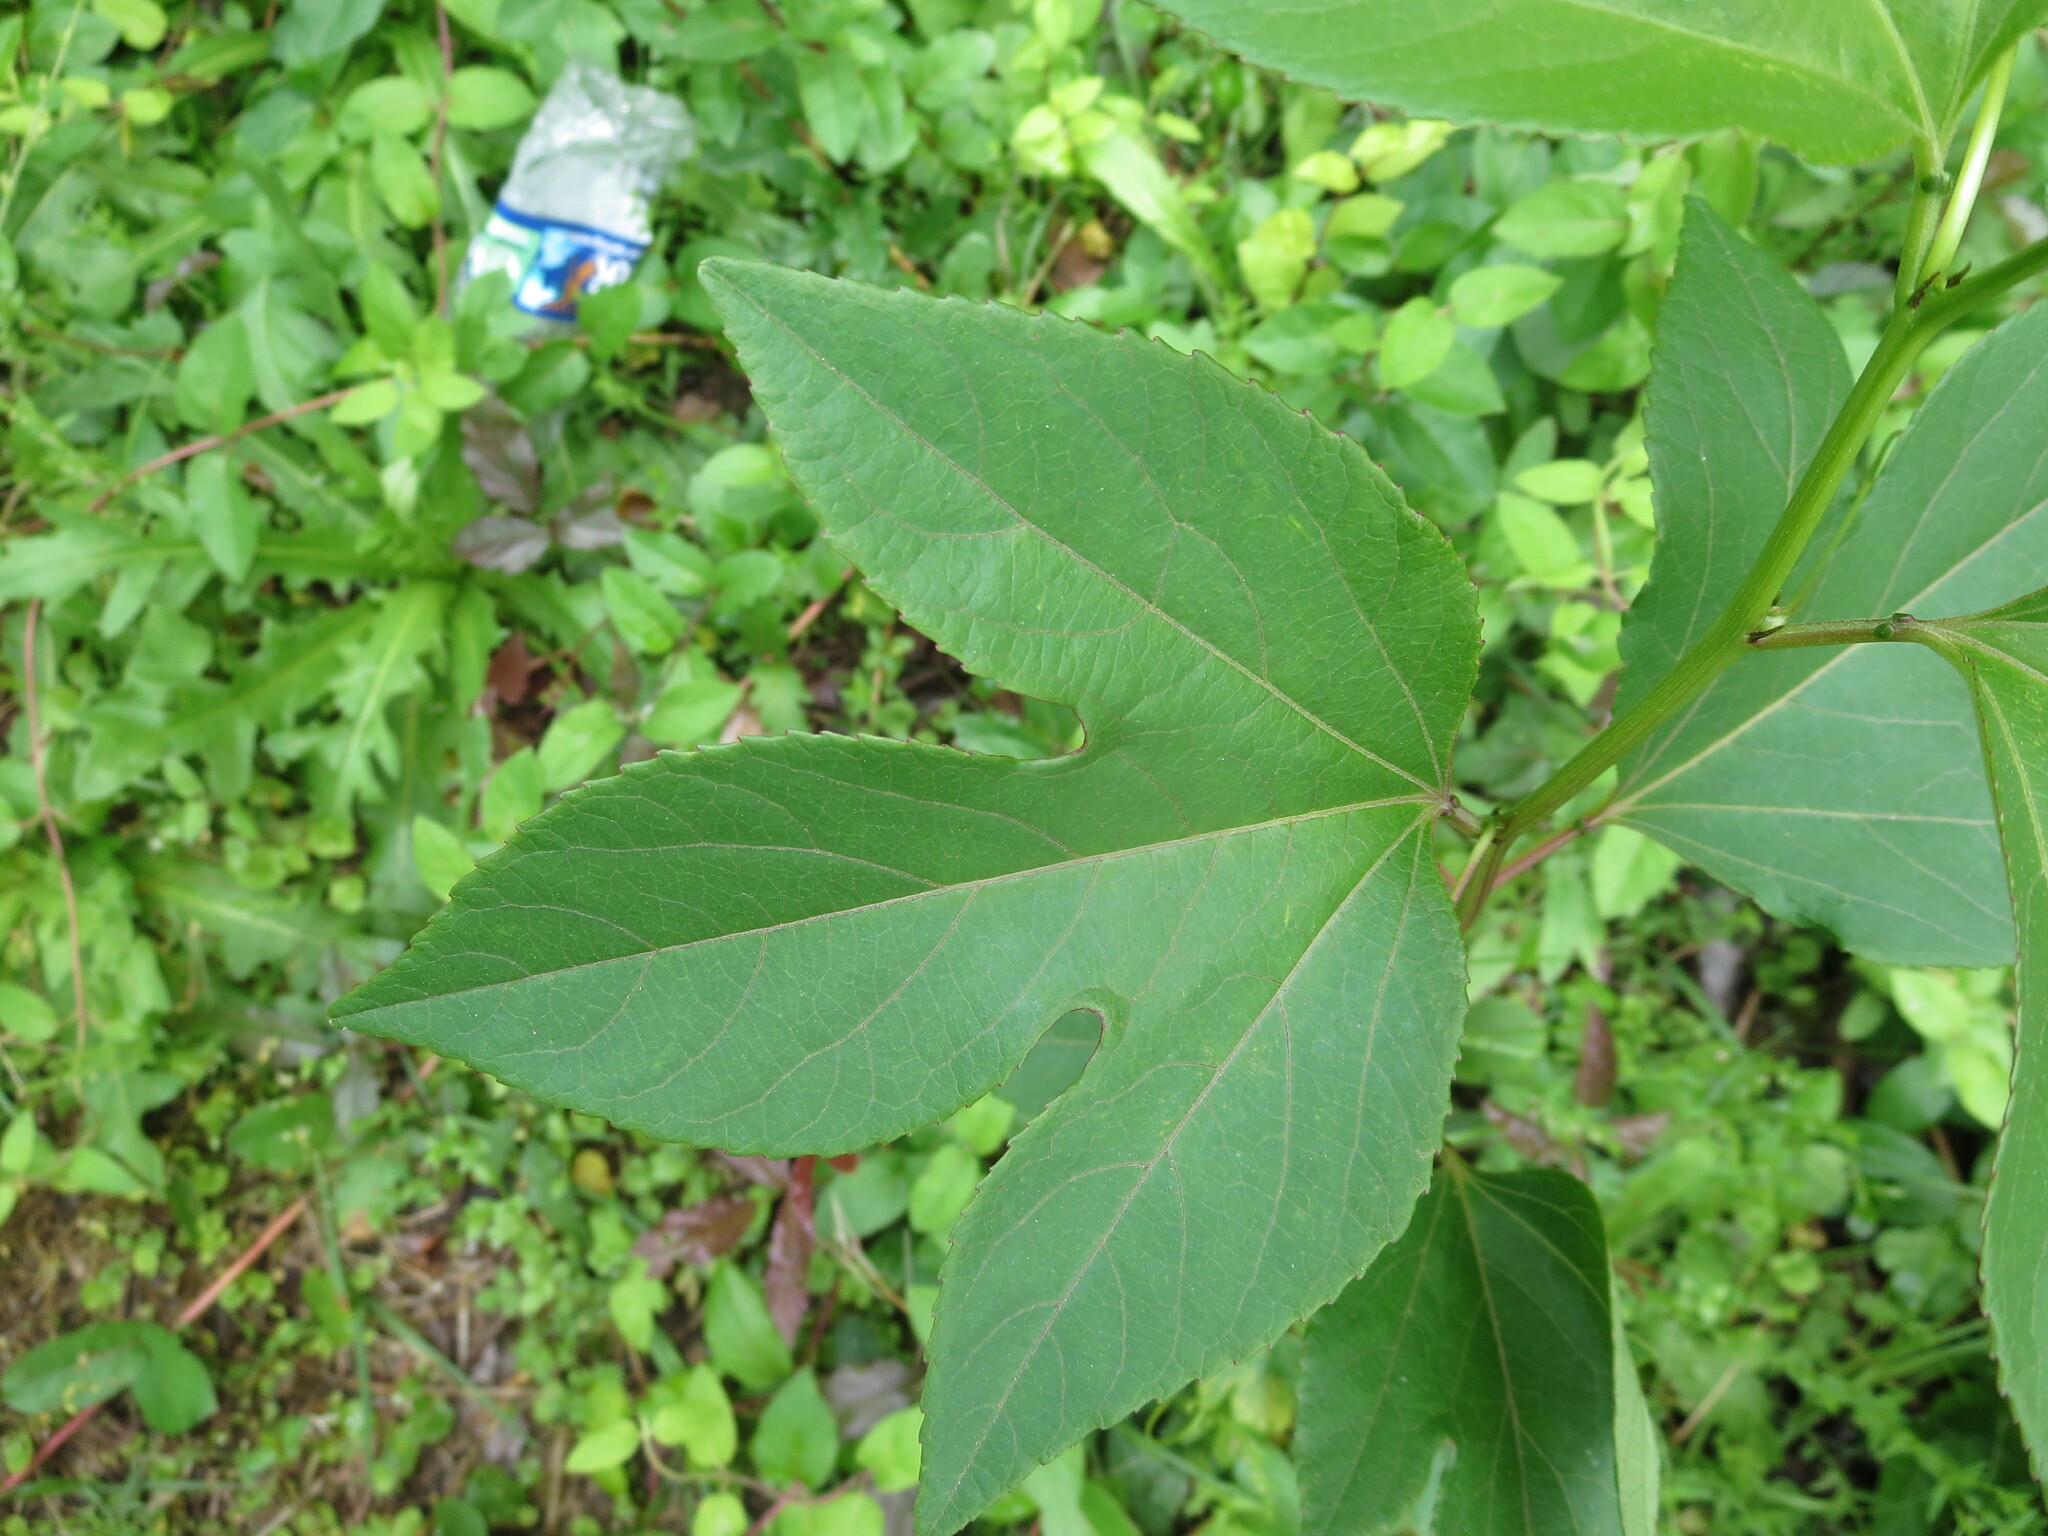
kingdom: Plantae
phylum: Tracheophyta
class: Magnoliopsida
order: Malpighiales
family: Passifloraceae
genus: Passiflora
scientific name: Passiflora incarnata
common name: Apricot-vine
